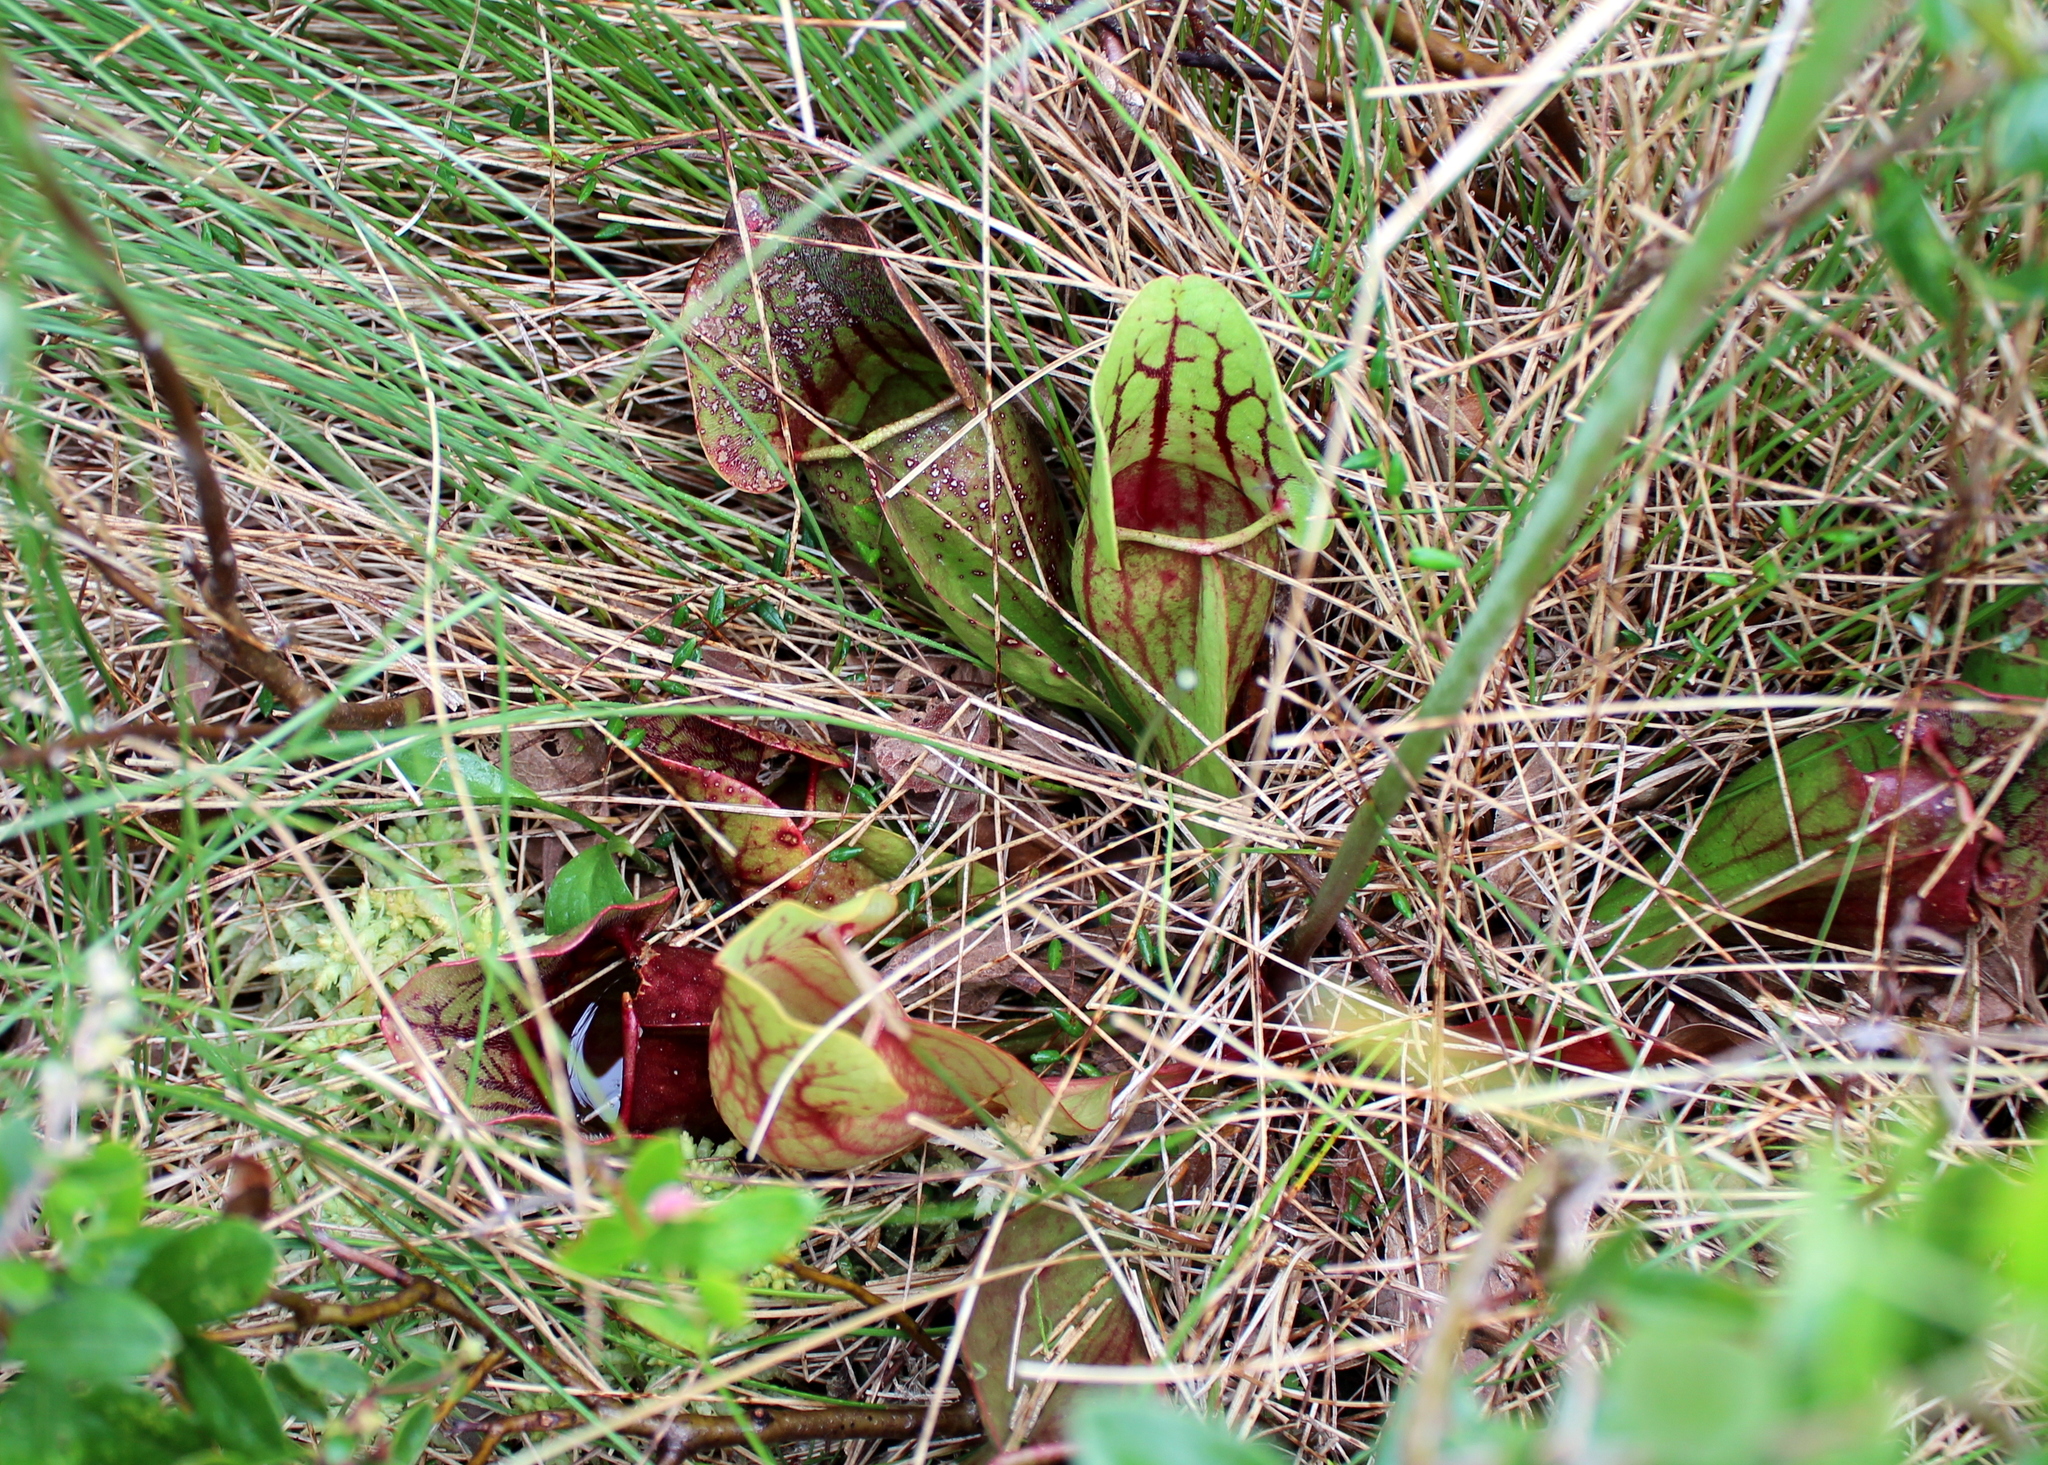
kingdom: Plantae
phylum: Tracheophyta
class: Magnoliopsida
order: Ericales
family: Sarraceniaceae
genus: Sarracenia
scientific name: Sarracenia purpurea
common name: Pitcherplant
